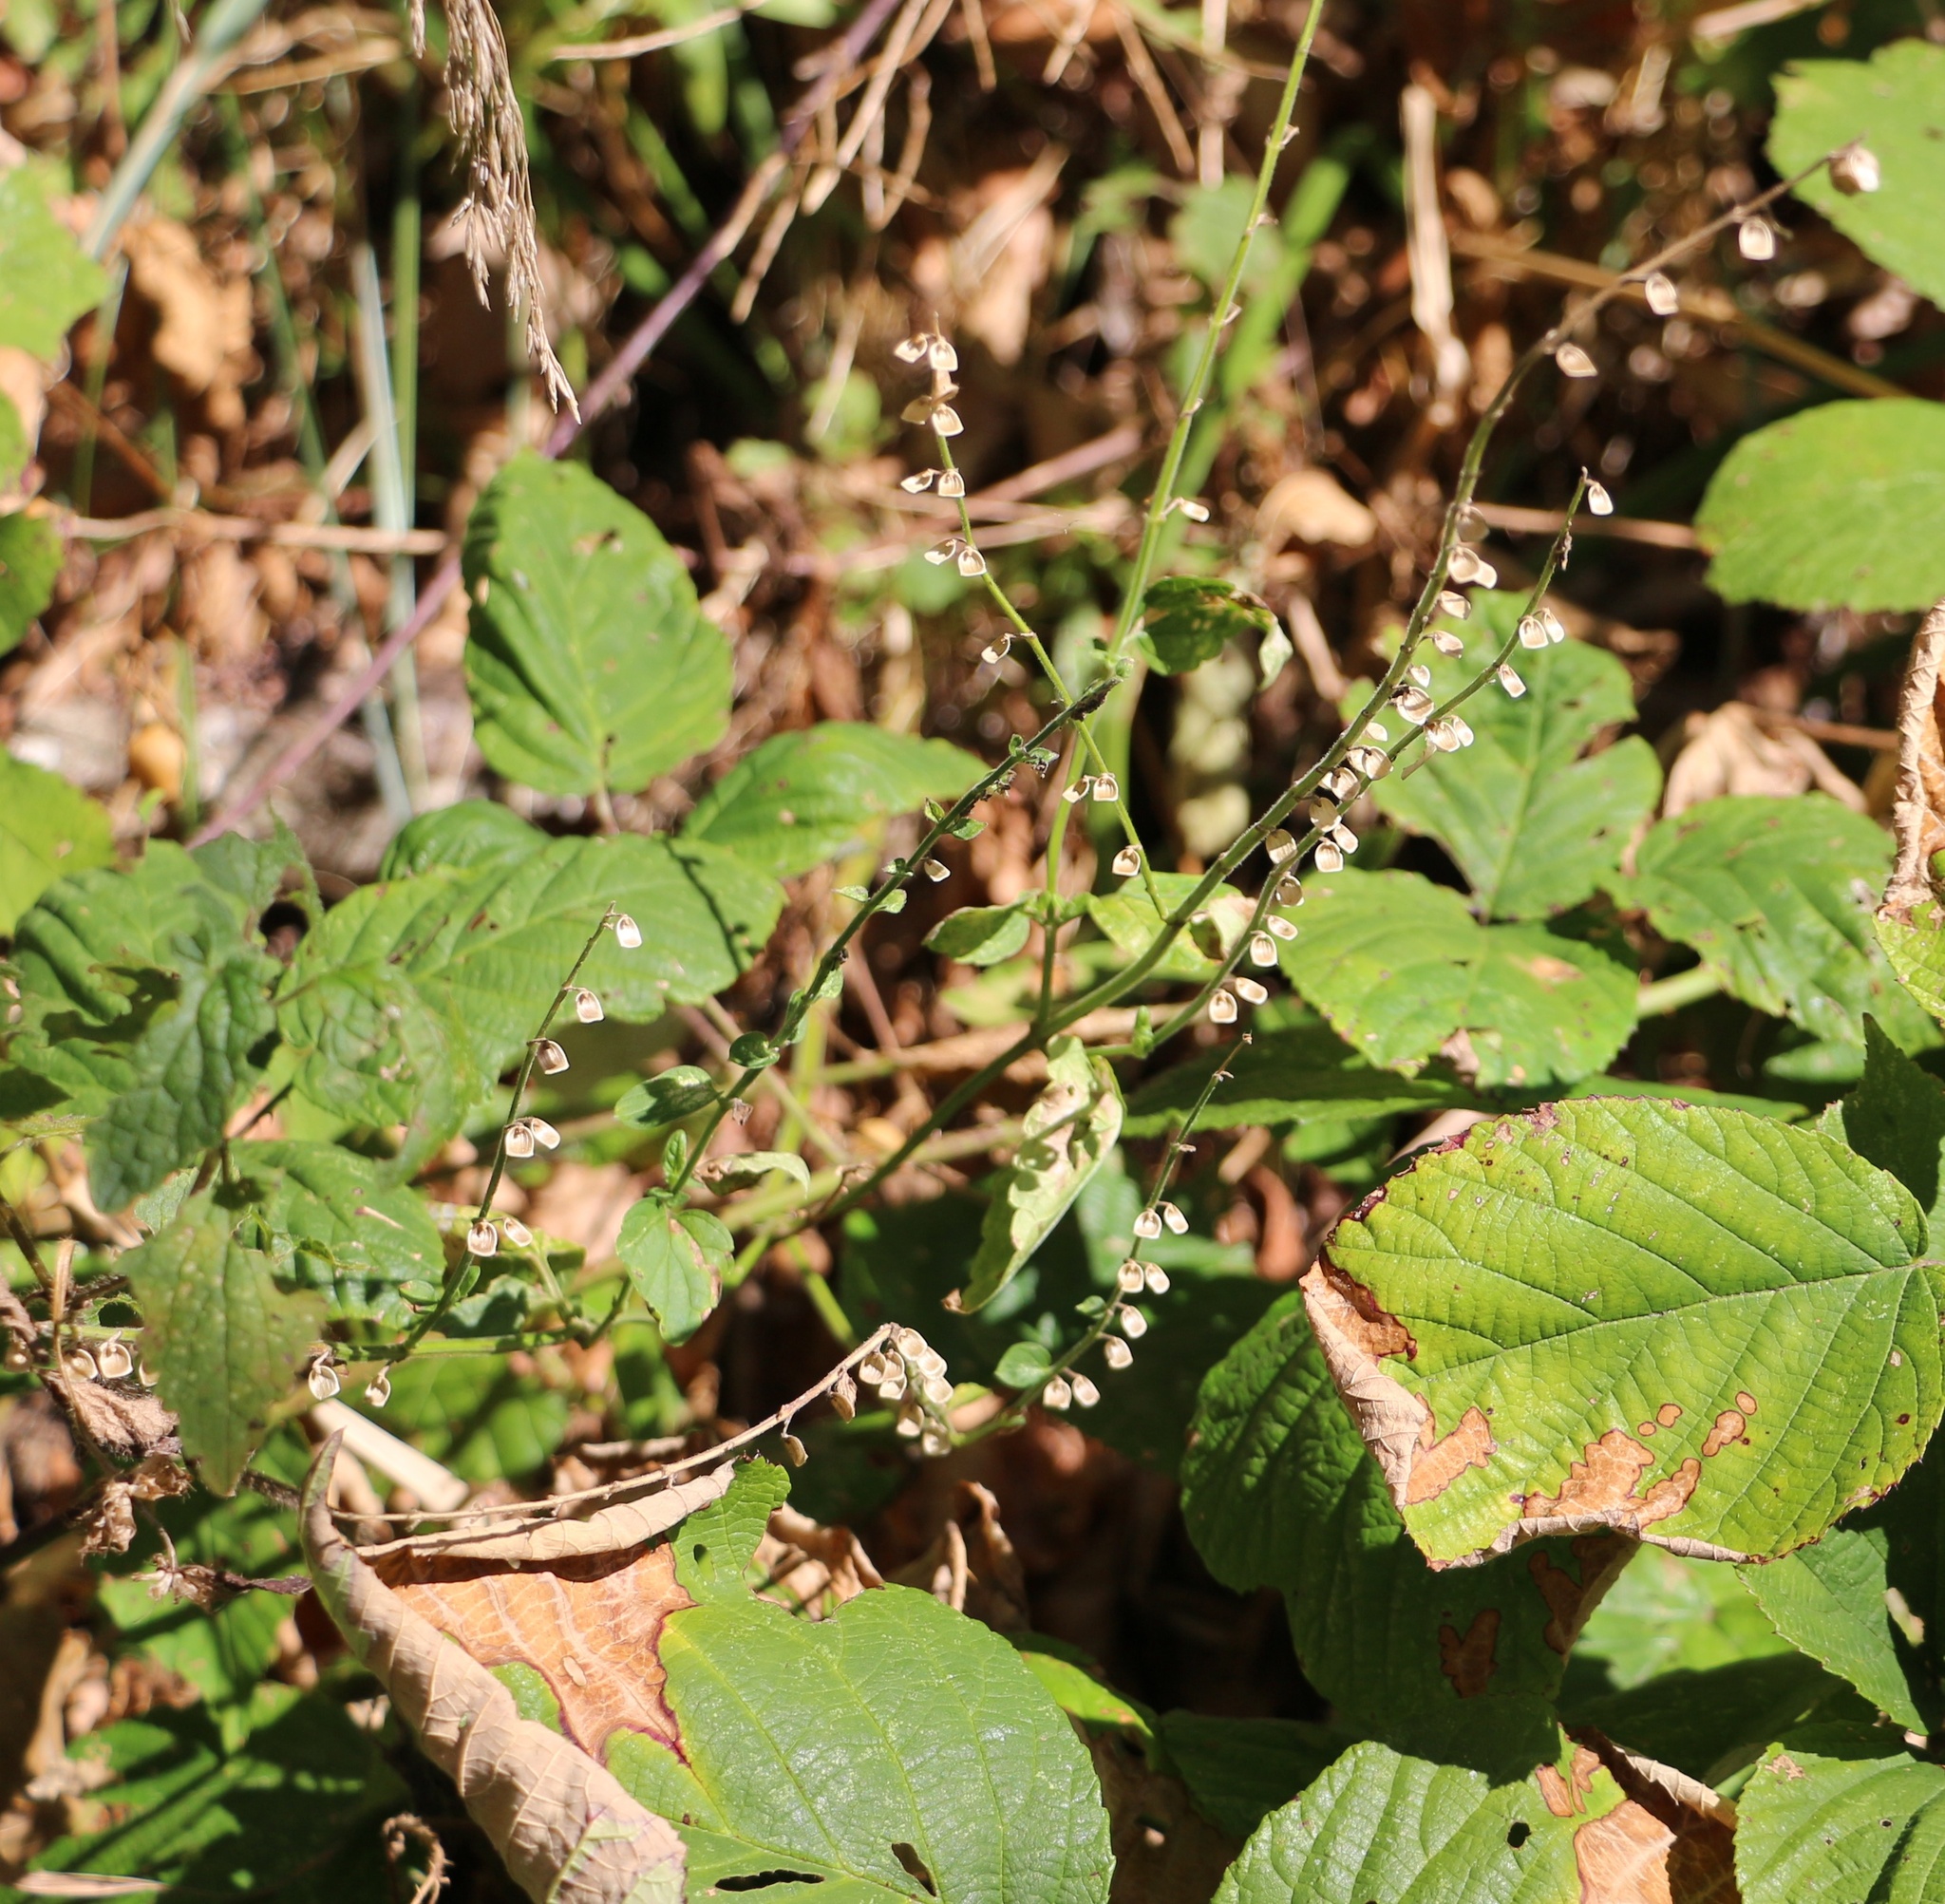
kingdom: Plantae
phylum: Tracheophyta
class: Magnoliopsida
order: Lamiales
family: Lamiaceae
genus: Scutellaria
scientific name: Scutellaria altissima
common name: Somerset skullcap
